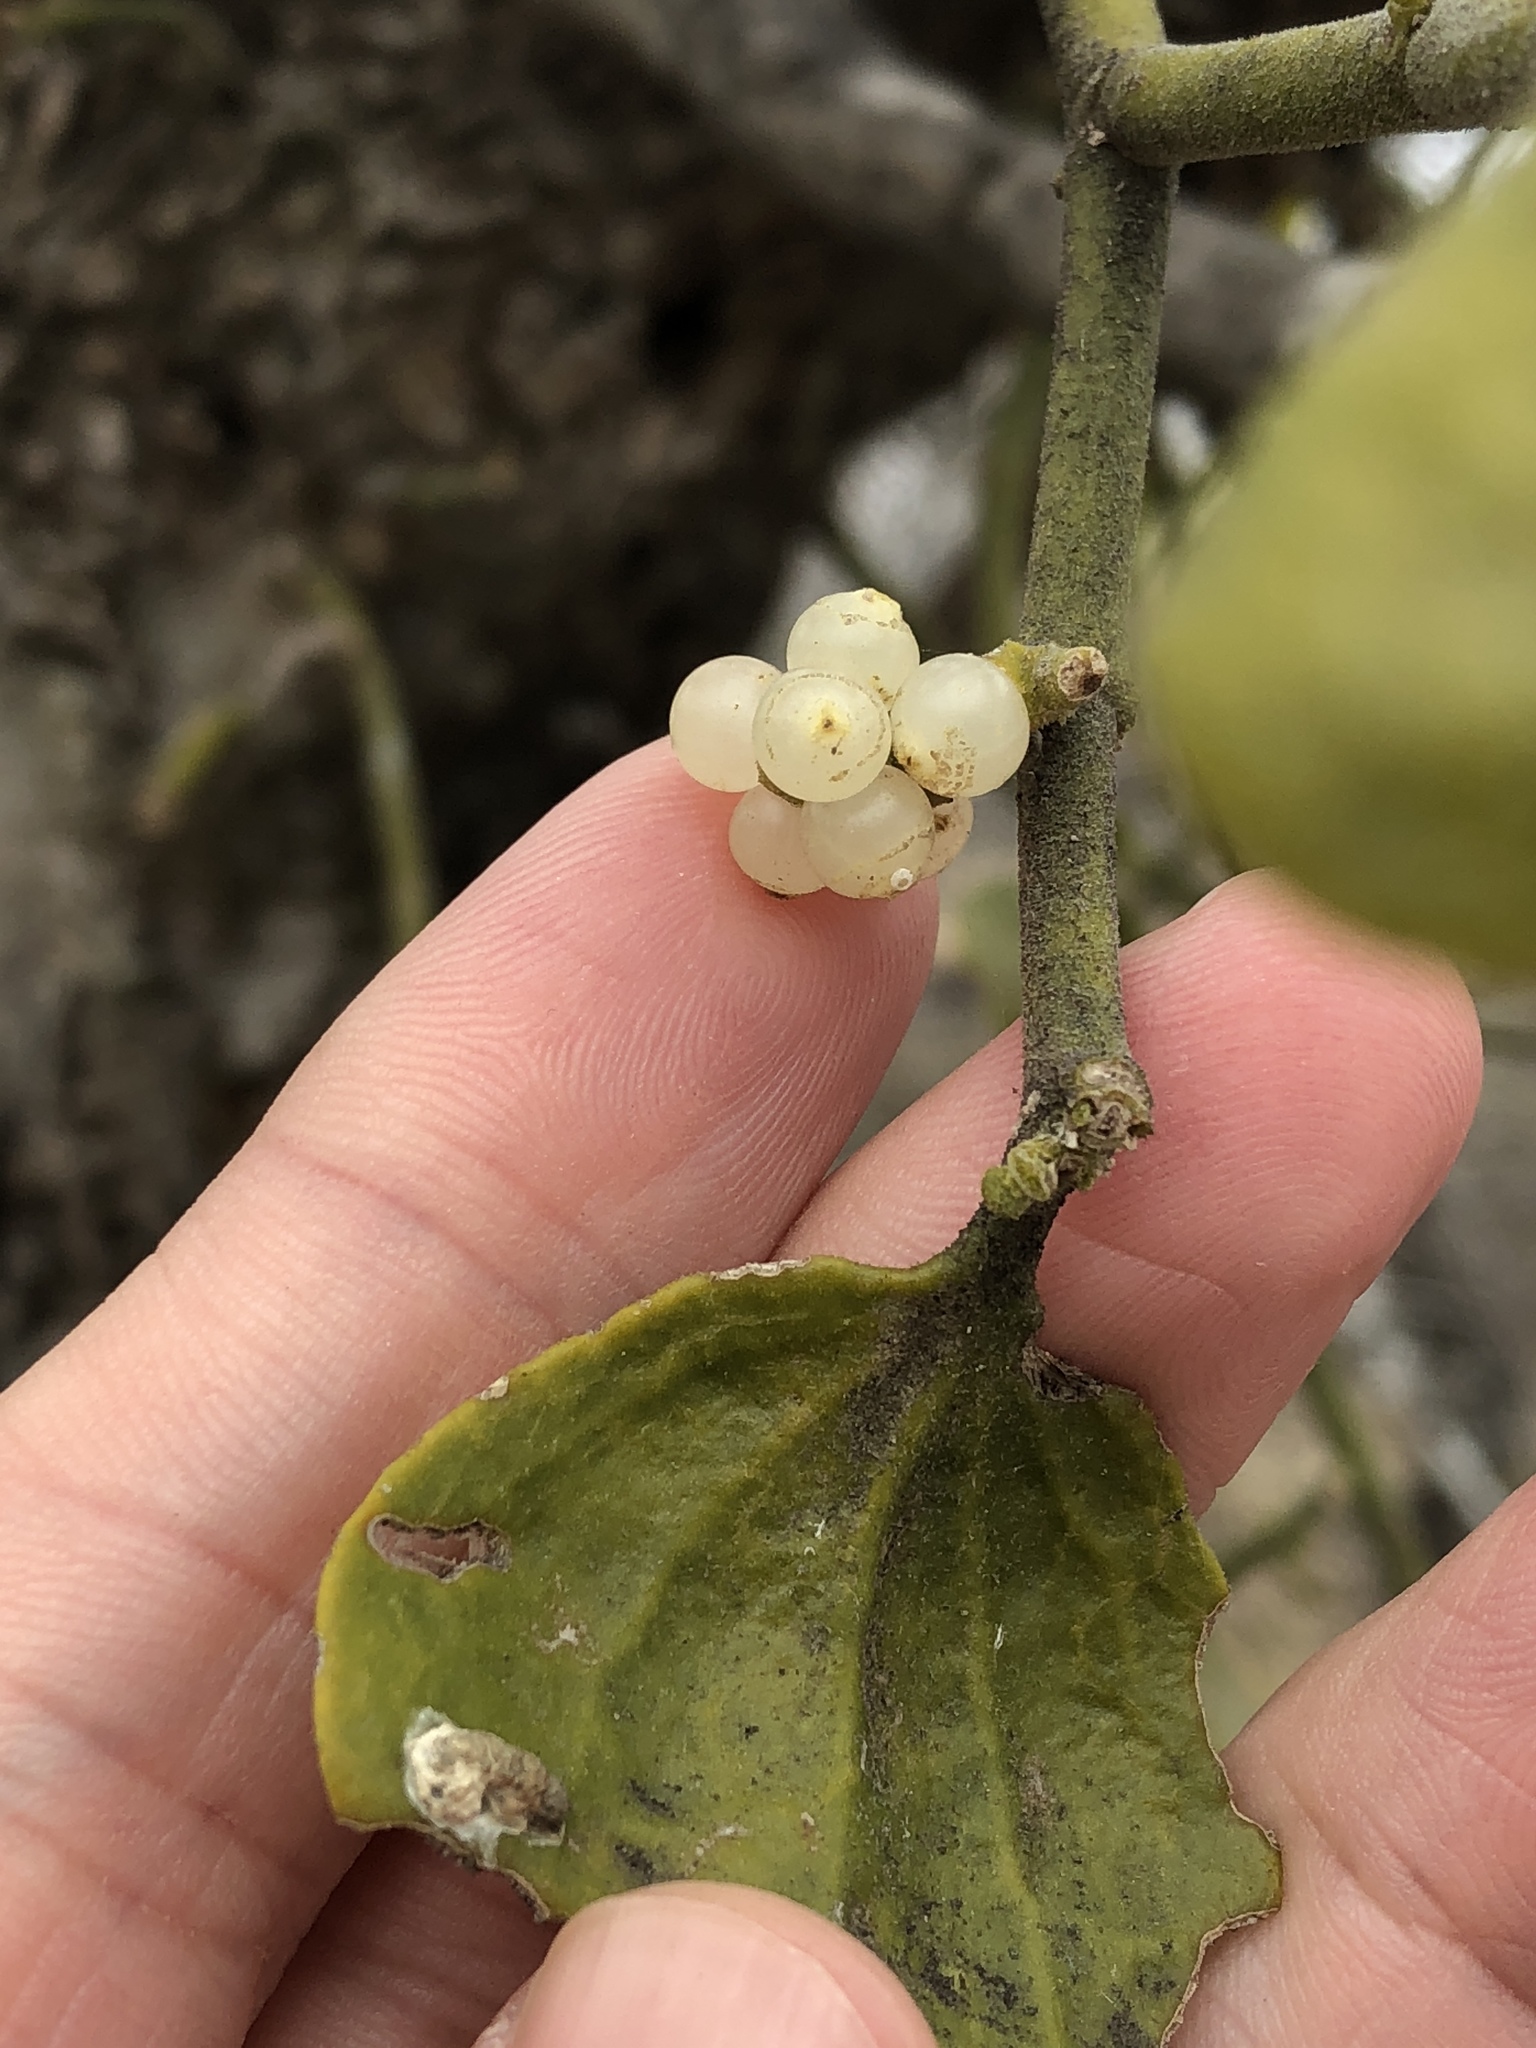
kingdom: Plantae
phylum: Tracheophyta
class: Magnoliopsida
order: Santalales
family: Viscaceae
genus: Phoradendron
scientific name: Phoradendron leucarpum
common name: Pacific mistletoe
